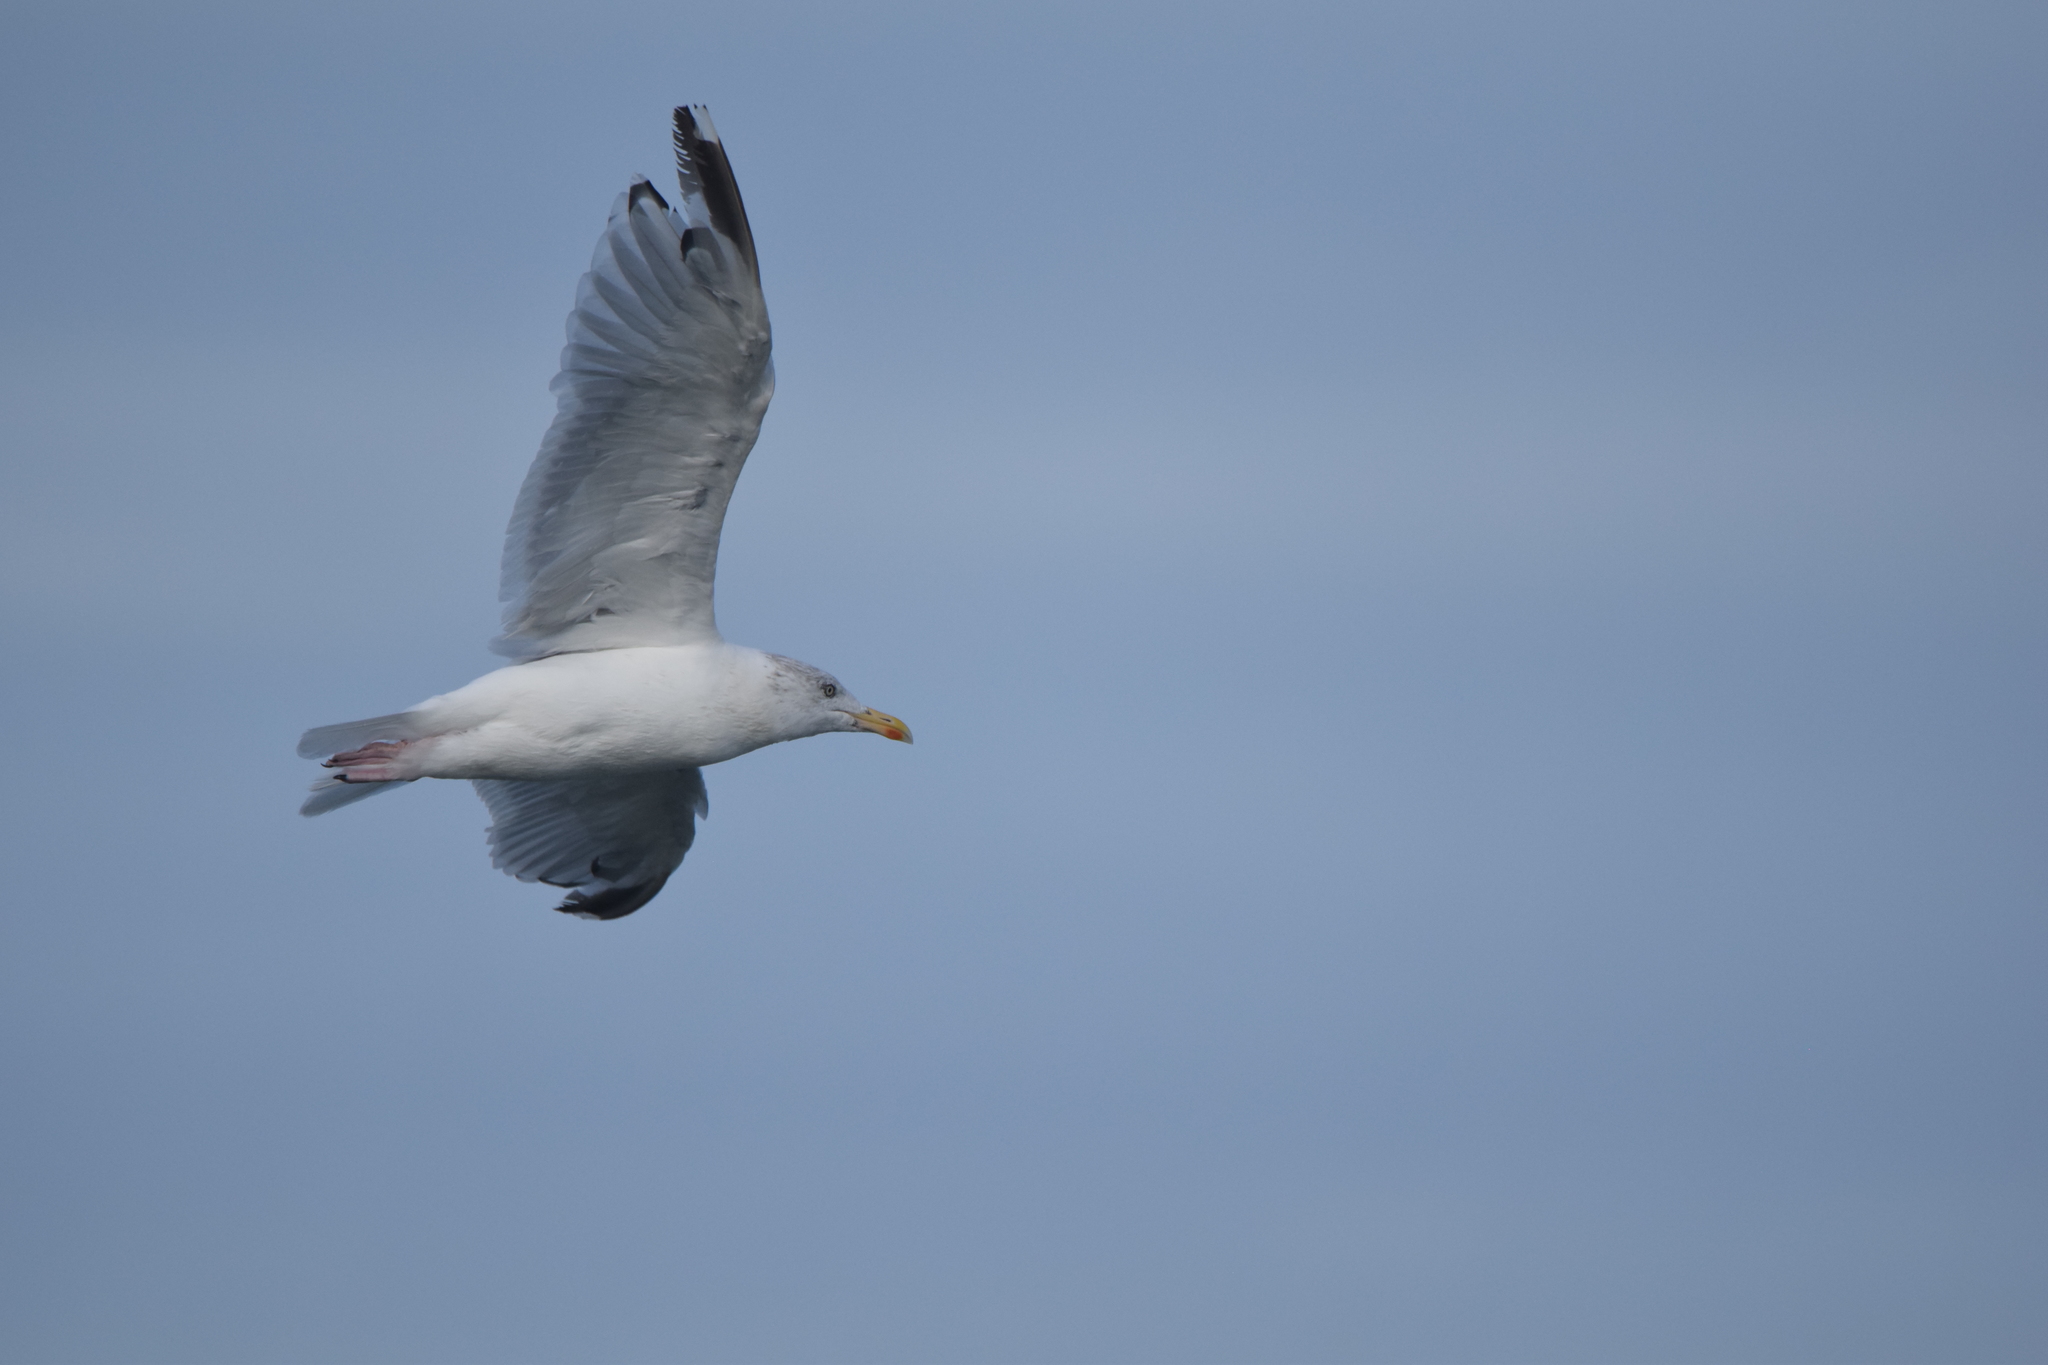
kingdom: Animalia
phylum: Chordata
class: Aves
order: Charadriiformes
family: Laridae
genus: Larus
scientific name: Larus argentatus
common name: Herring gull
